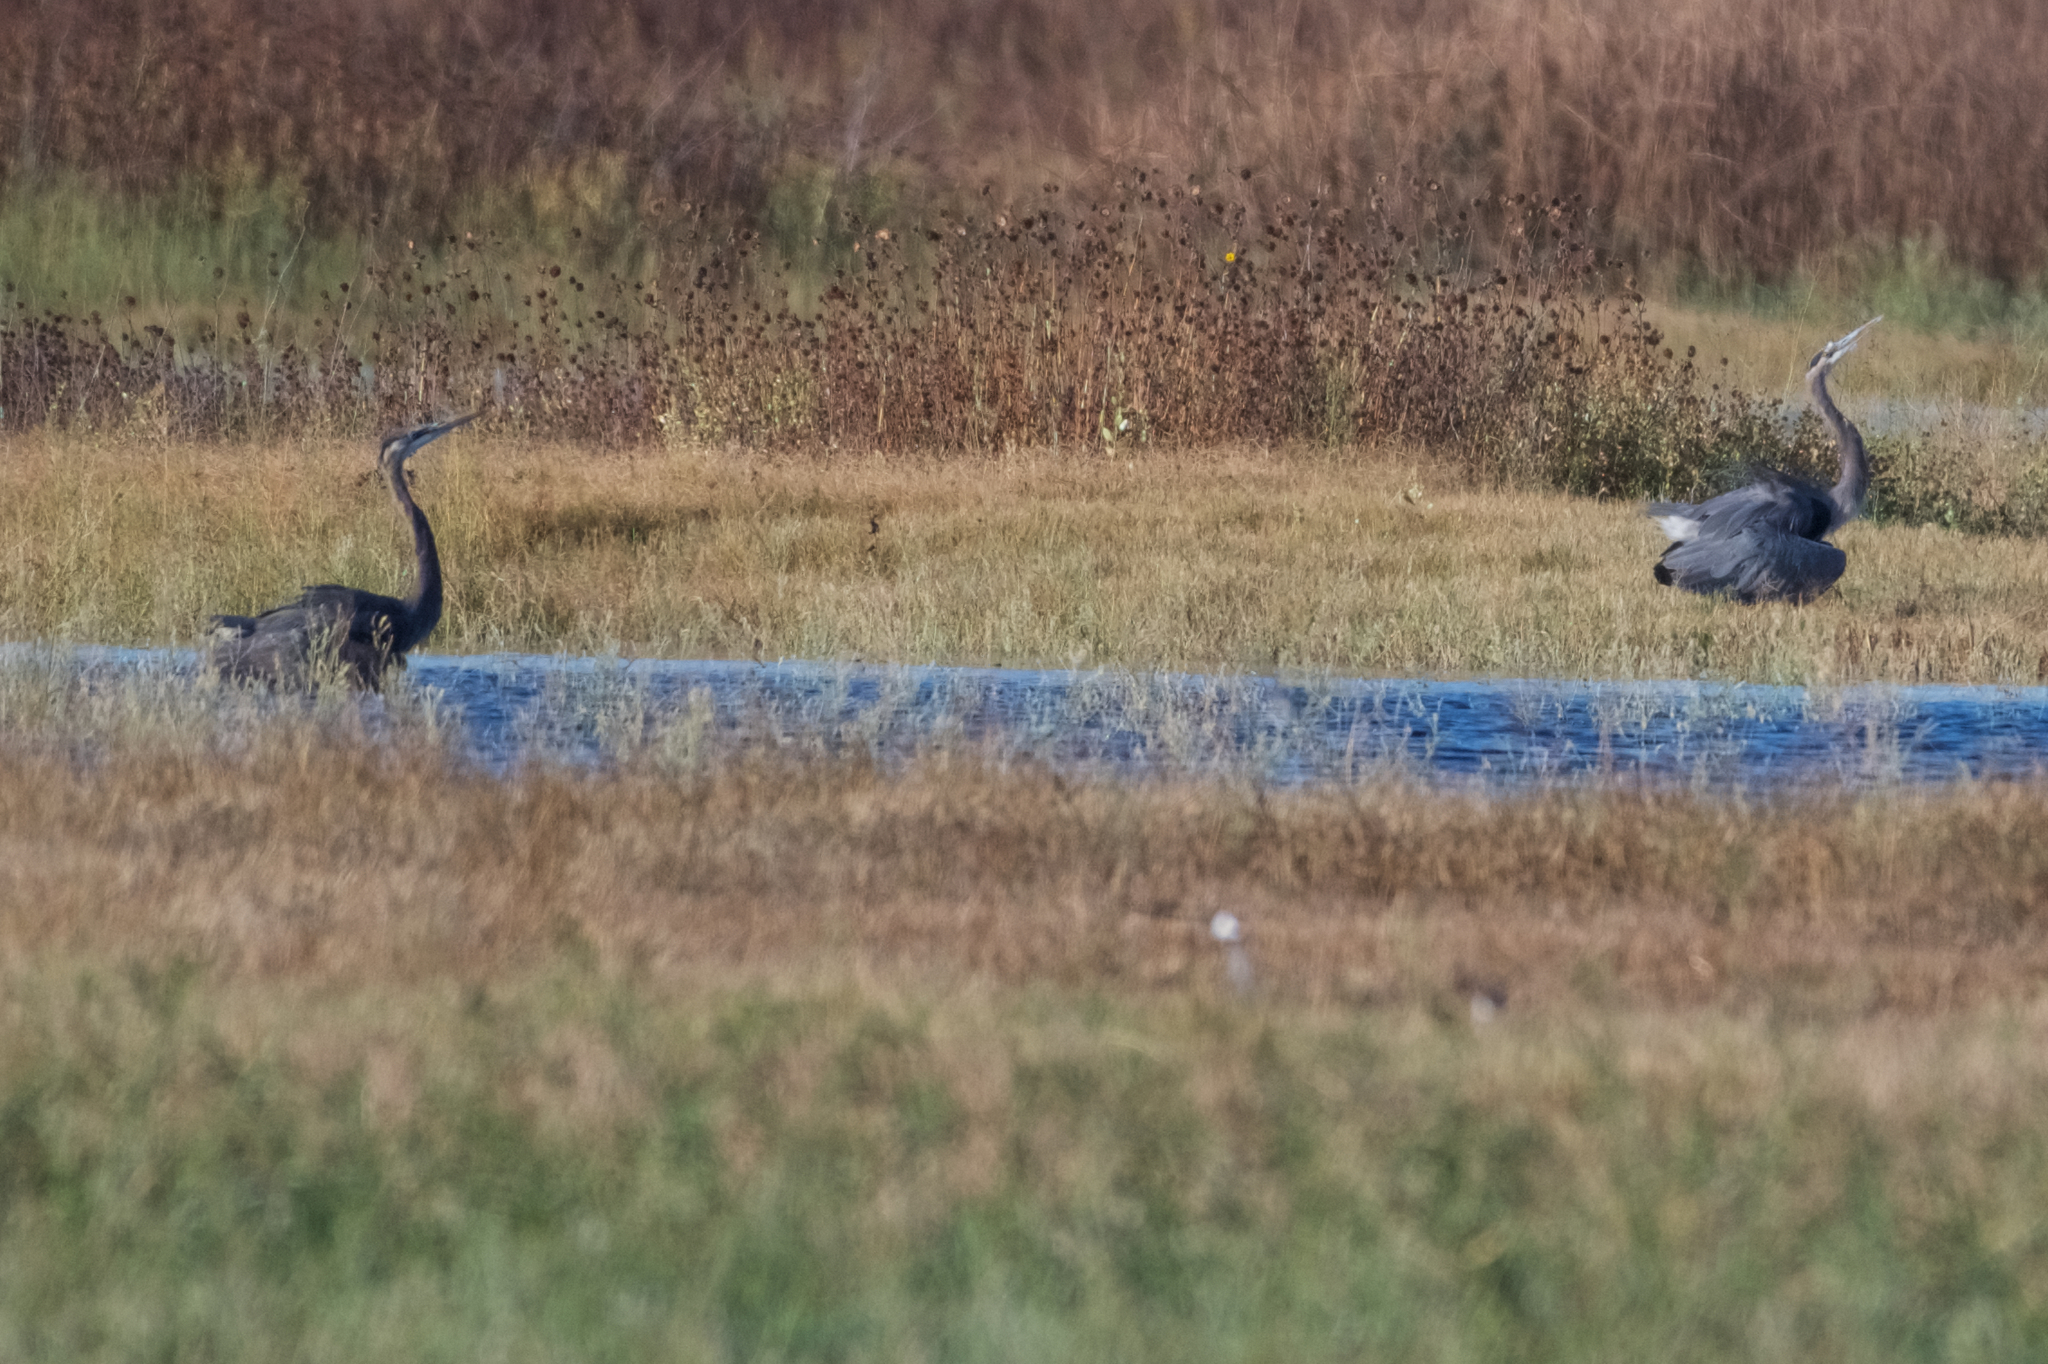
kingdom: Animalia
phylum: Chordata
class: Aves
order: Pelecaniformes
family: Ardeidae
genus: Ardea
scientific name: Ardea herodias
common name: Great blue heron
